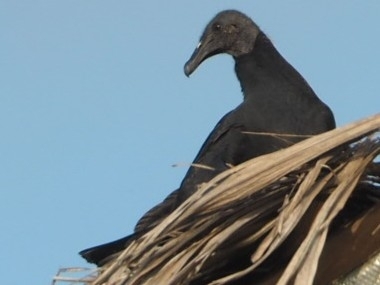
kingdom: Animalia
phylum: Chordata
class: Aves
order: Accipitriformes
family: Cathartidae
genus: Coragyps
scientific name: Coragyps atratus
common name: Black vulture
